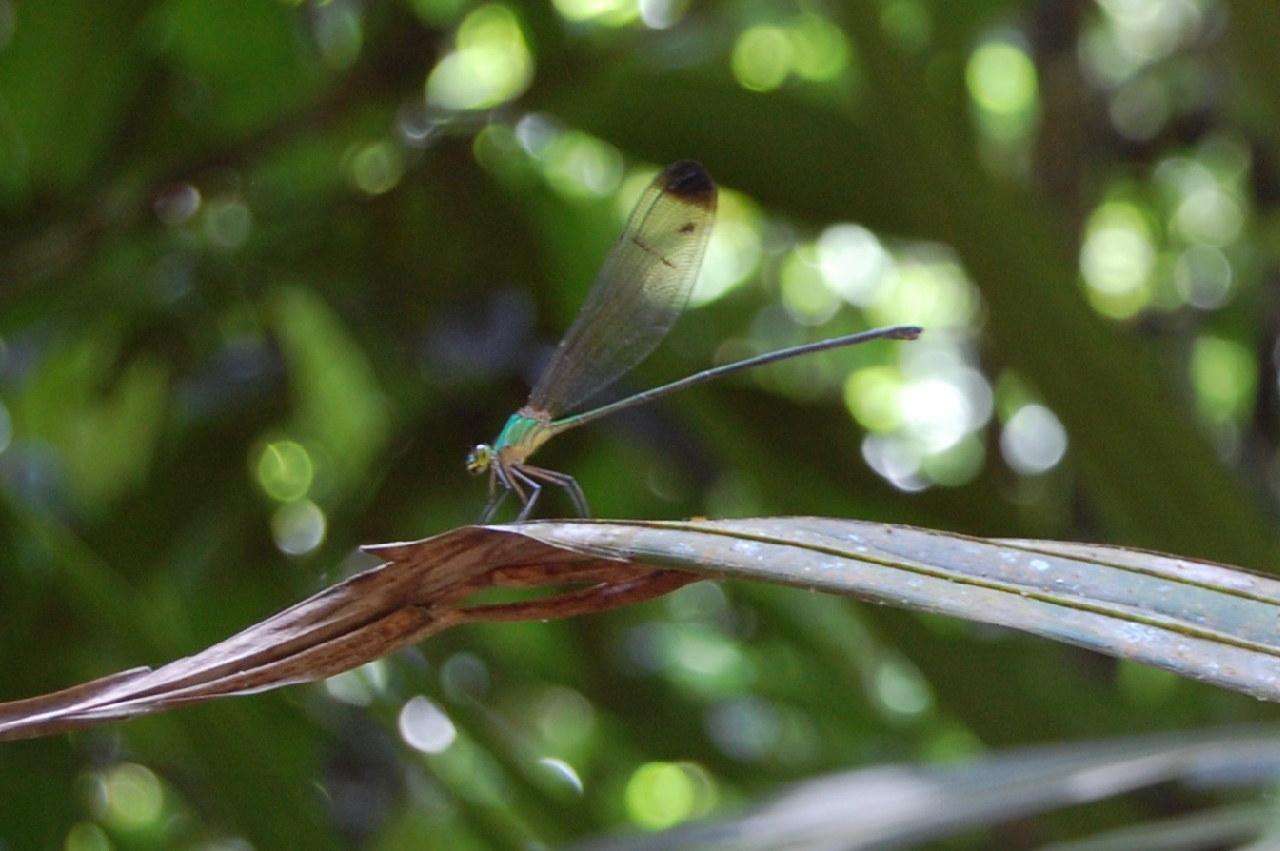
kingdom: Animalia
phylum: Arthropoda
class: Insecta
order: Odonata
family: Calopterygidae
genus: Vestalis
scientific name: Vestalis apicalis
